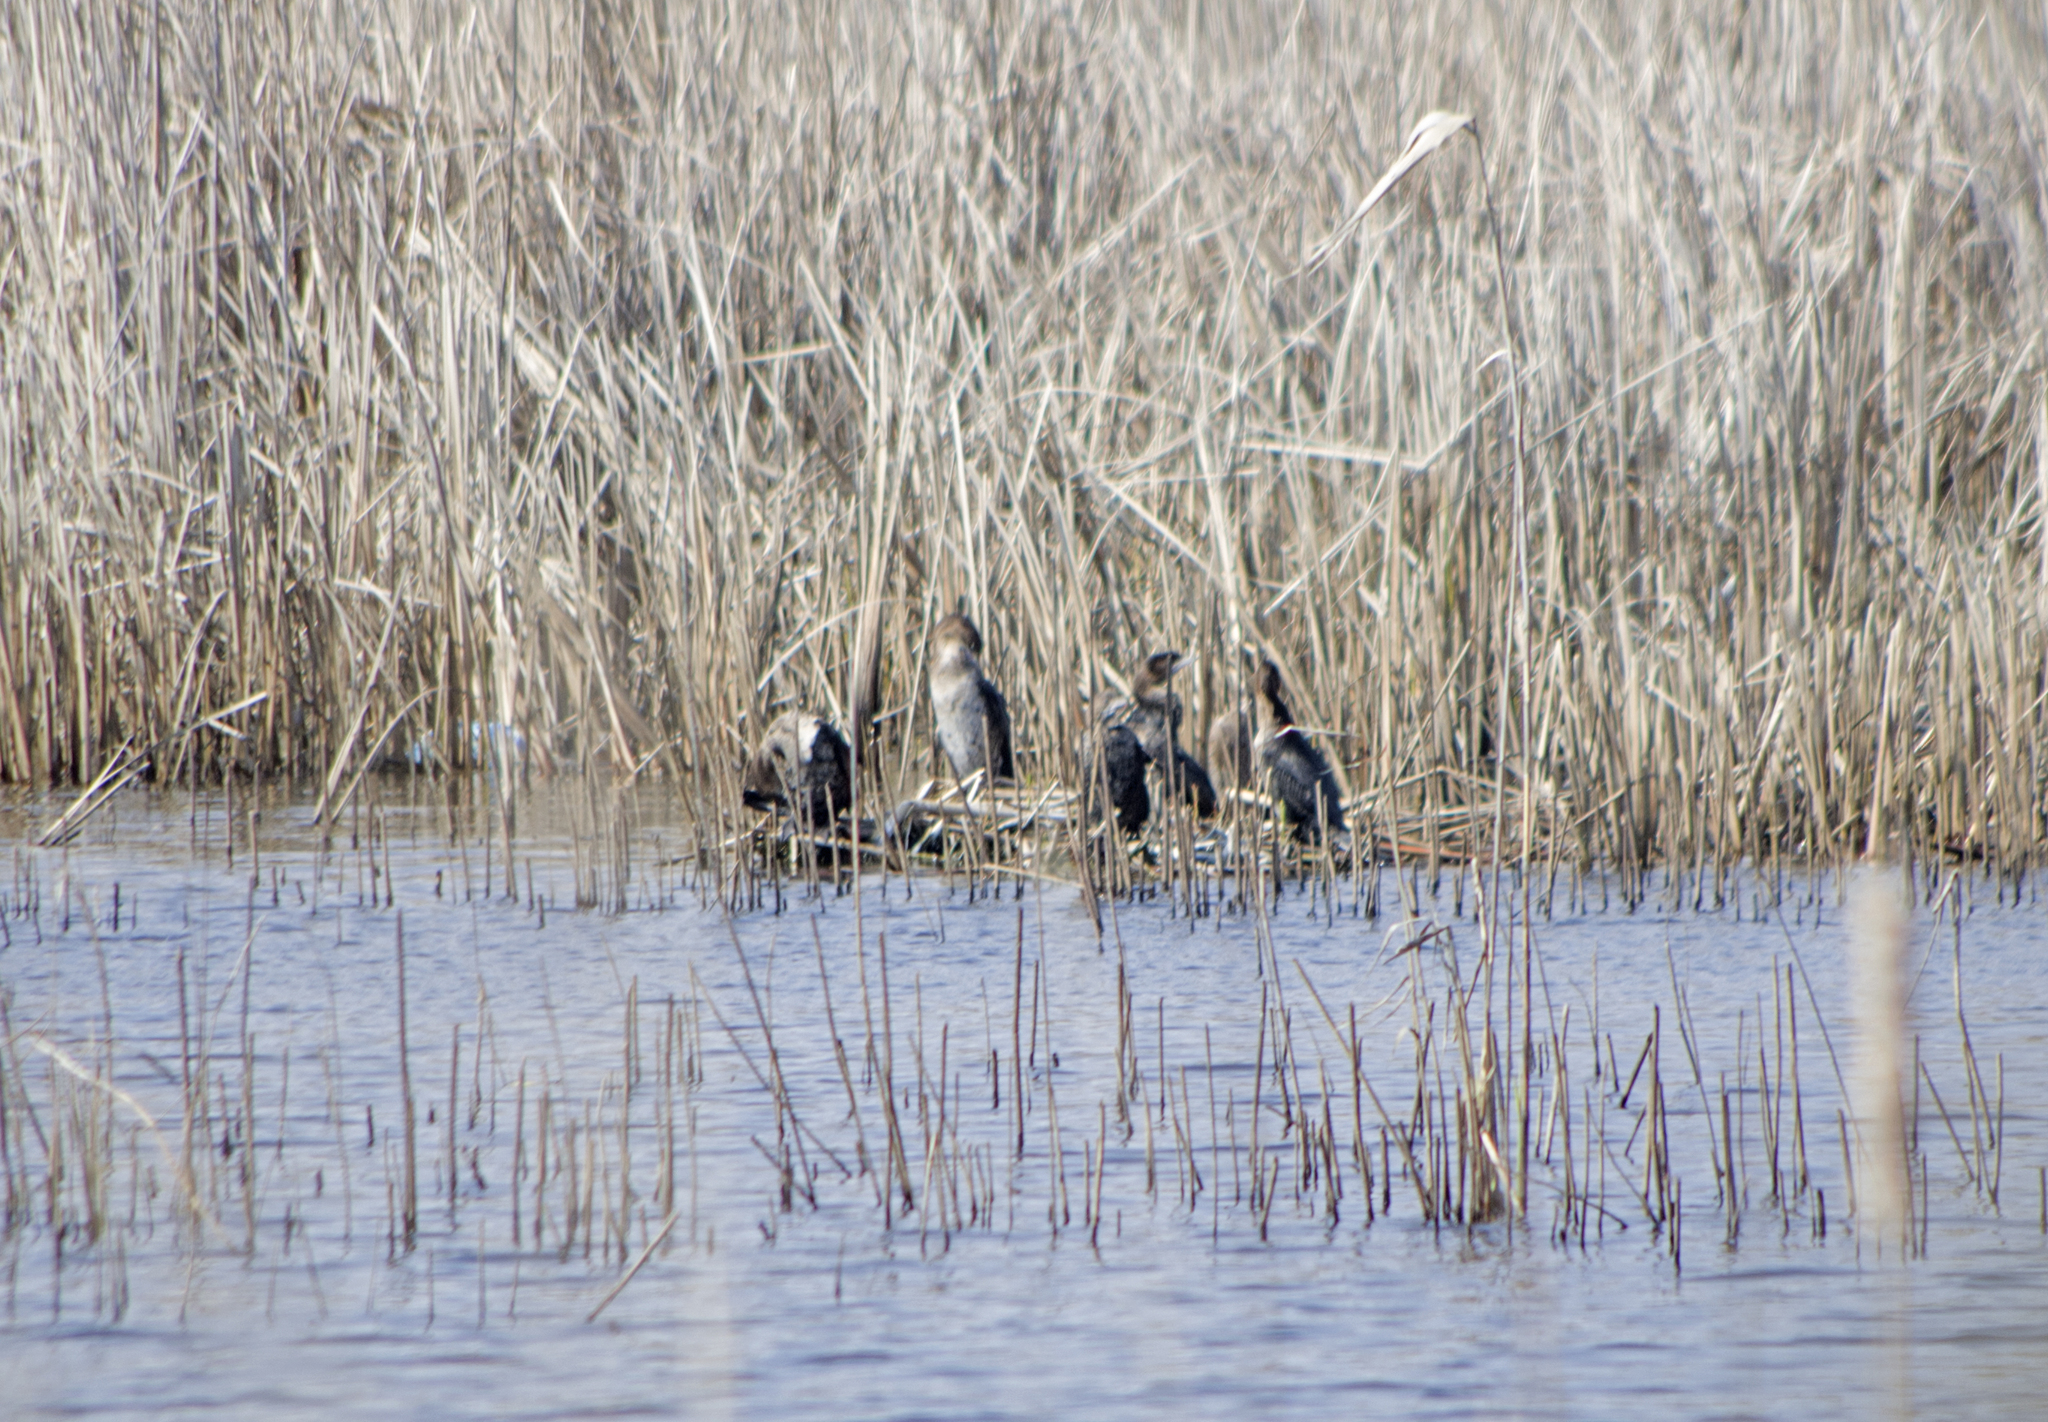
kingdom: Animalia
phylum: Chordata
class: Aves
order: Suliformes
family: Phalacrocoracidae
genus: Microcarbo
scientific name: Microcarbo pygmaeus
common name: Pygmy cormorant
